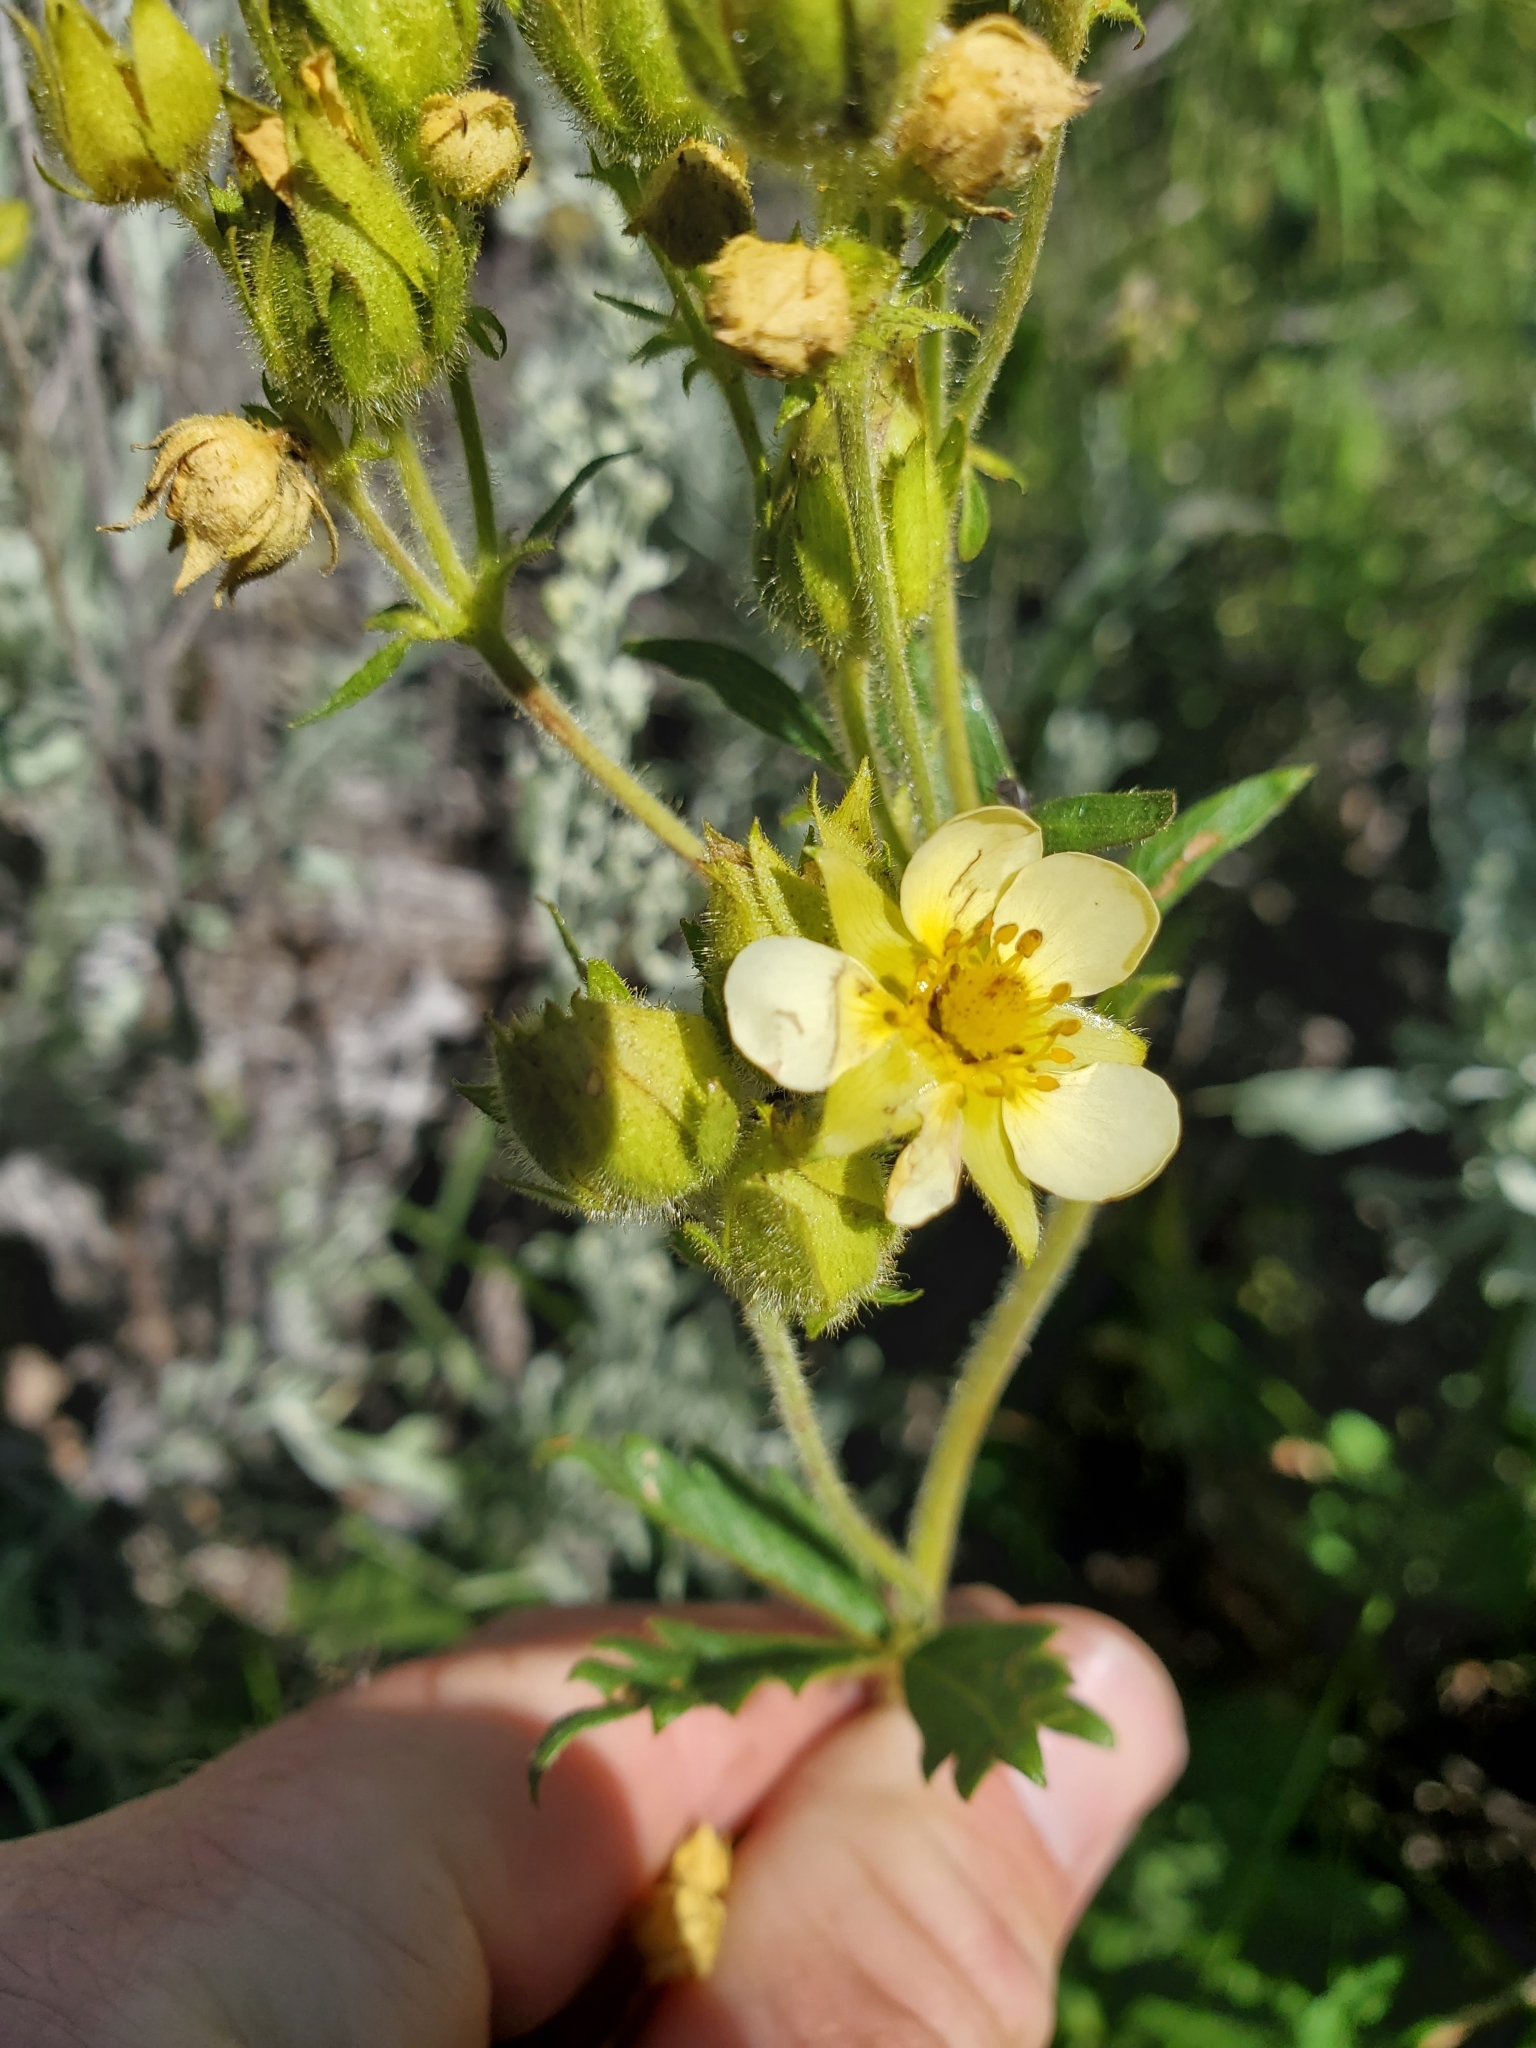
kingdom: Plantae
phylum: Tracheophyta
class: Magnoliopsida
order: Rosales
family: Rosaceae
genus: Drymocallis
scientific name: Drymocallis glandulosa
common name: Sticky cinquefoil
